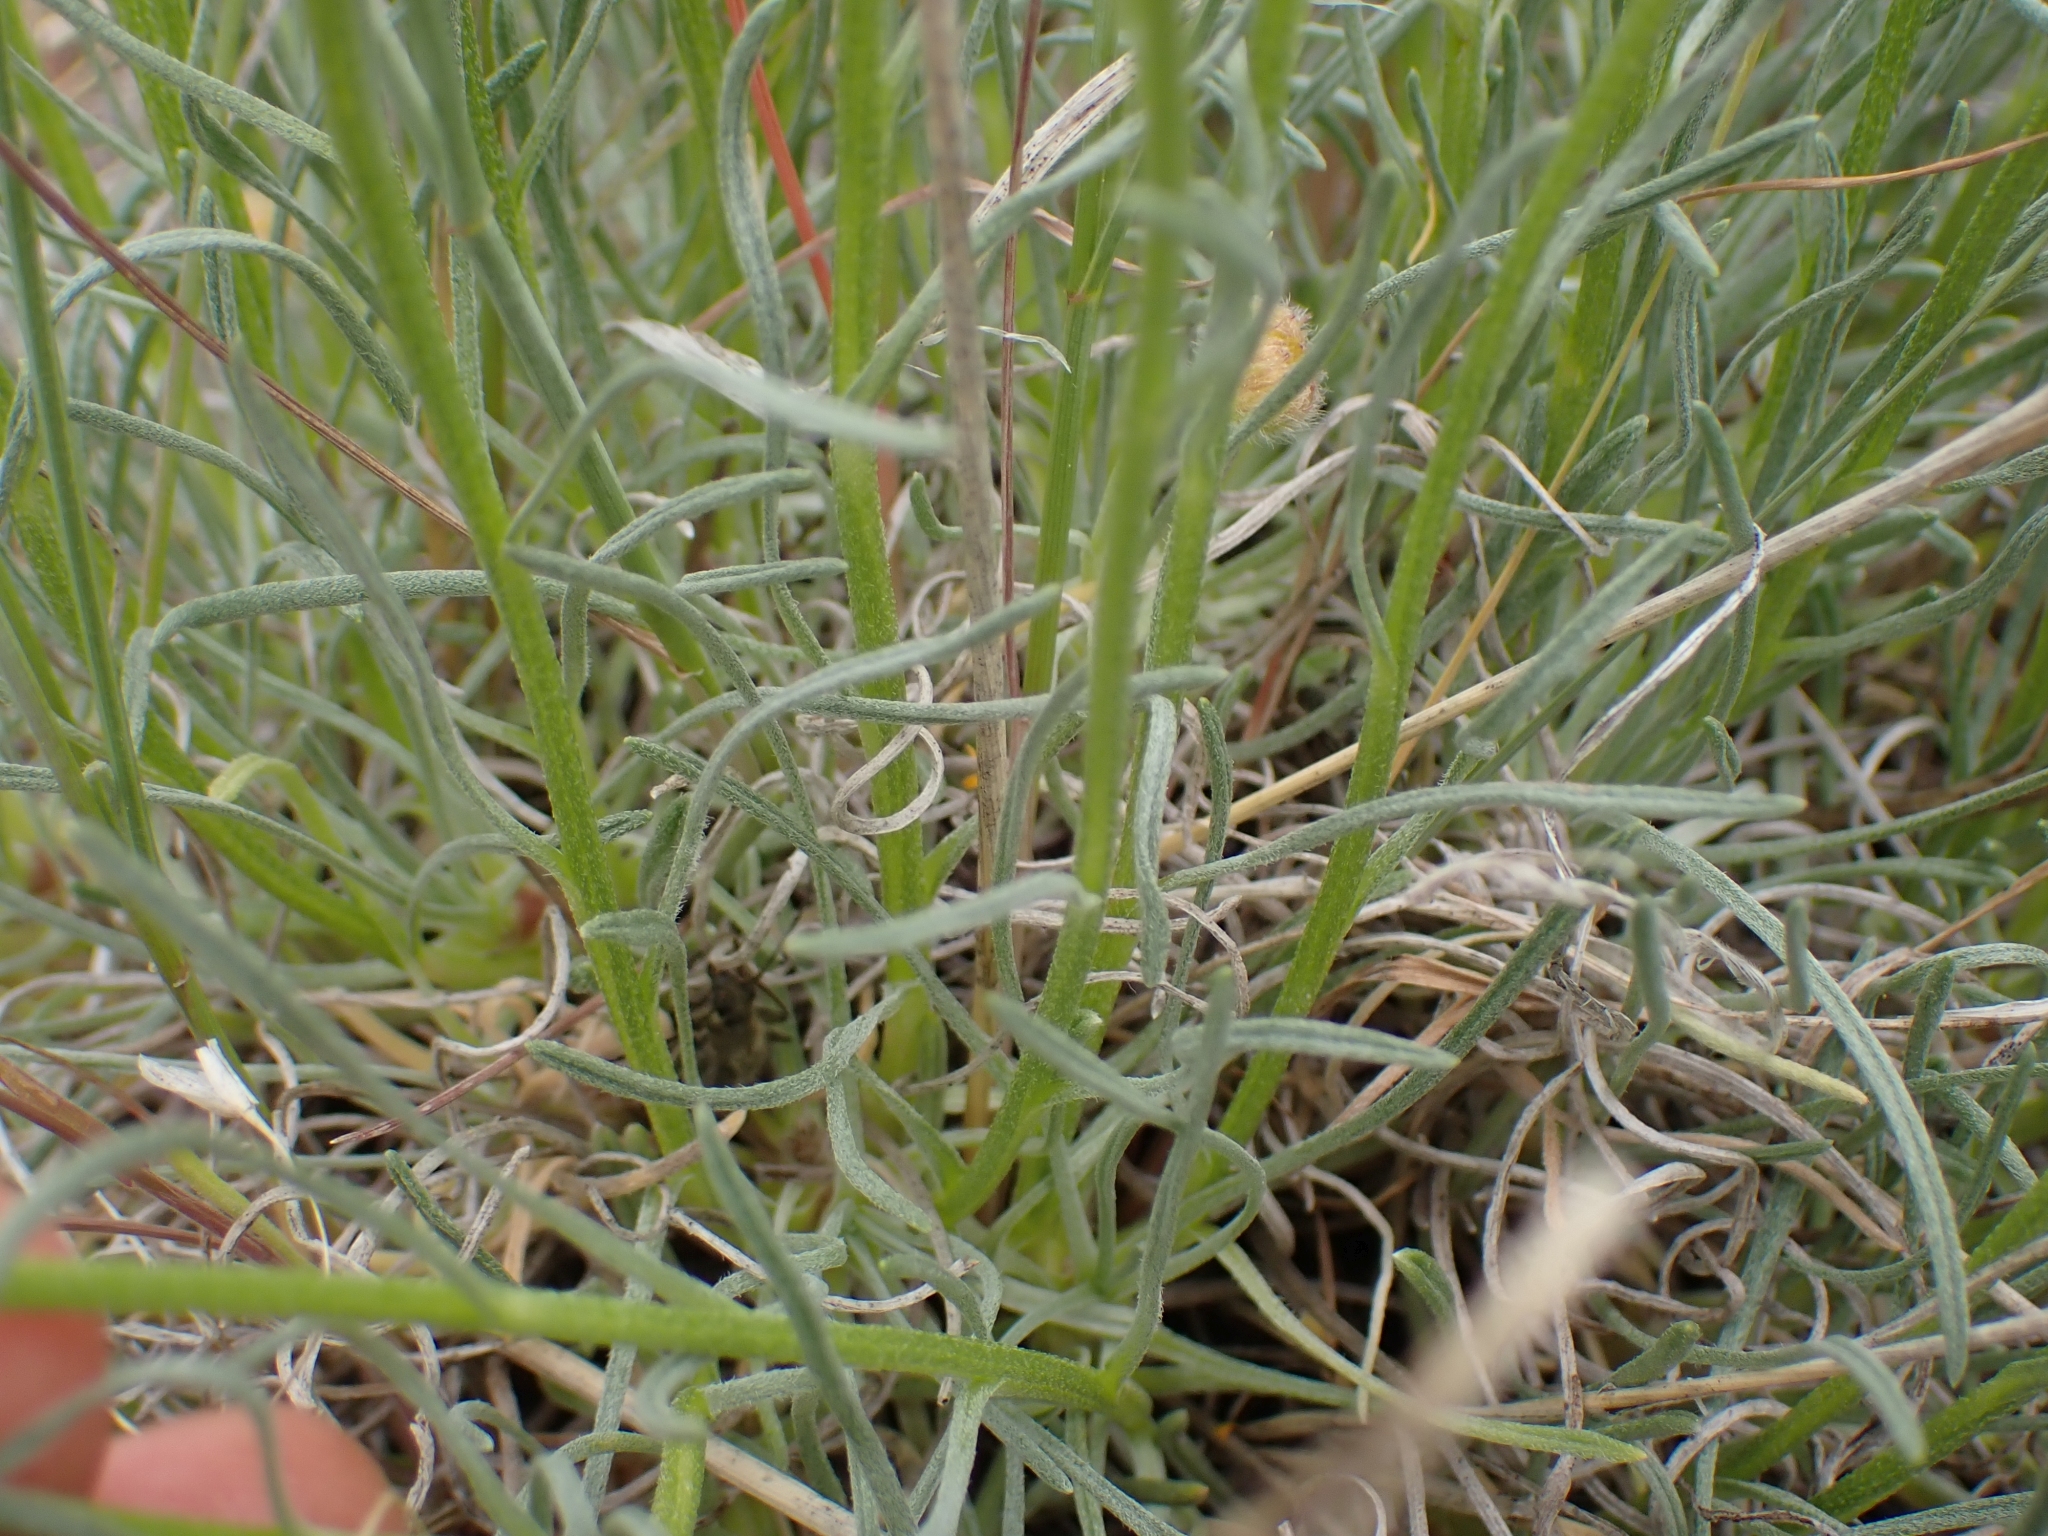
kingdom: Plantae
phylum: Tracheophyta
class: Magnoliopsida
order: Asterales
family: Asteraceae
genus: Erigeron
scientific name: Erigeron linearis
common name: Desert yellow fleabane
